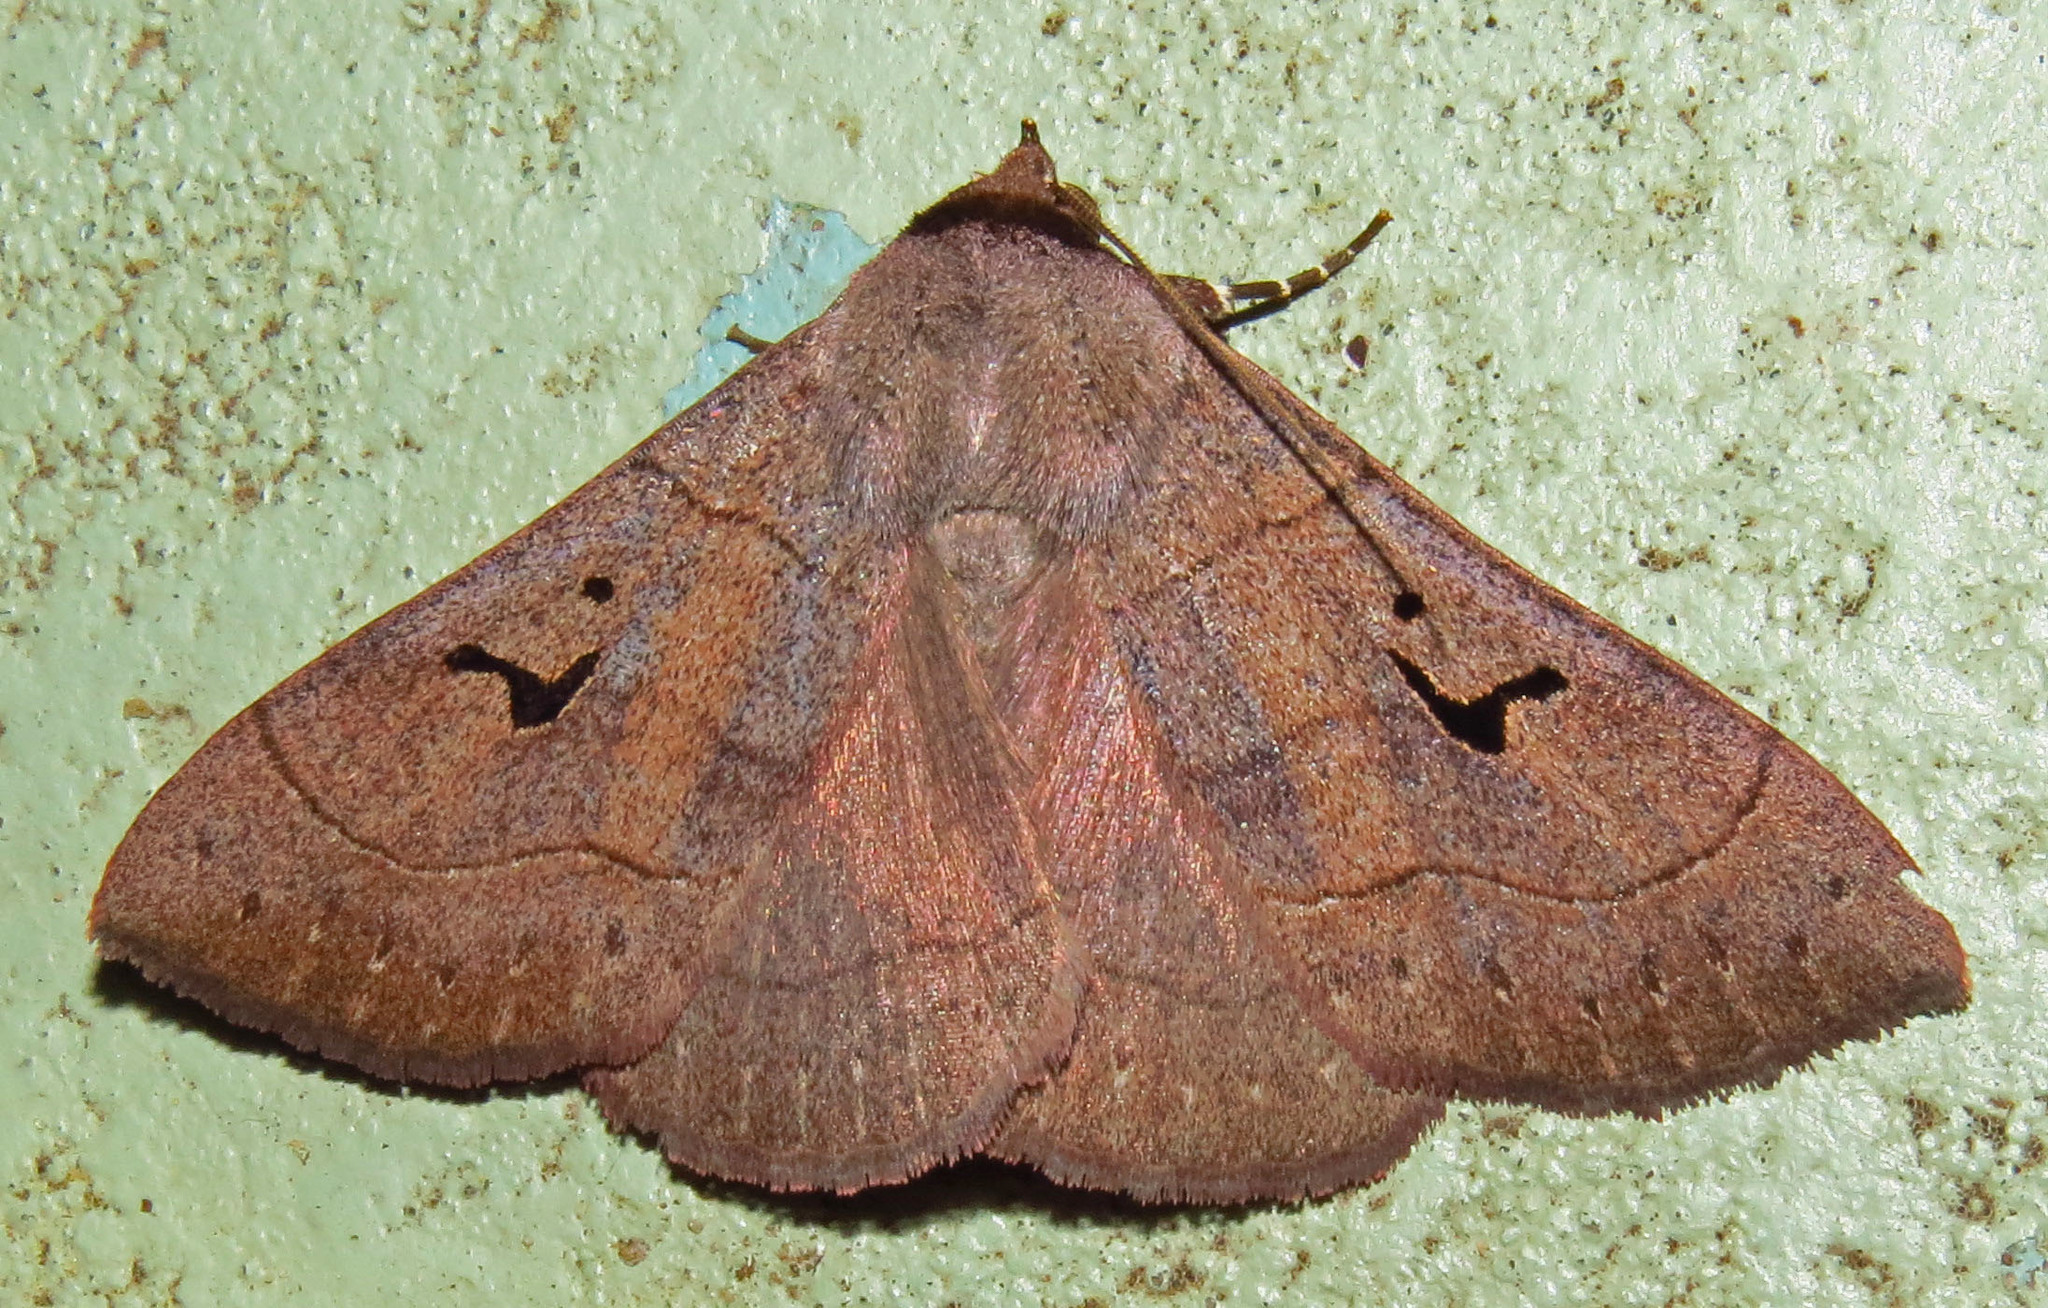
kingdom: Animalia
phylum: Arthropoda
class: Insecta
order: Lepidoptera
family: Erebidae
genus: Panopoda
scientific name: Panopoda carneicosta
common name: Brown panopoda moth
